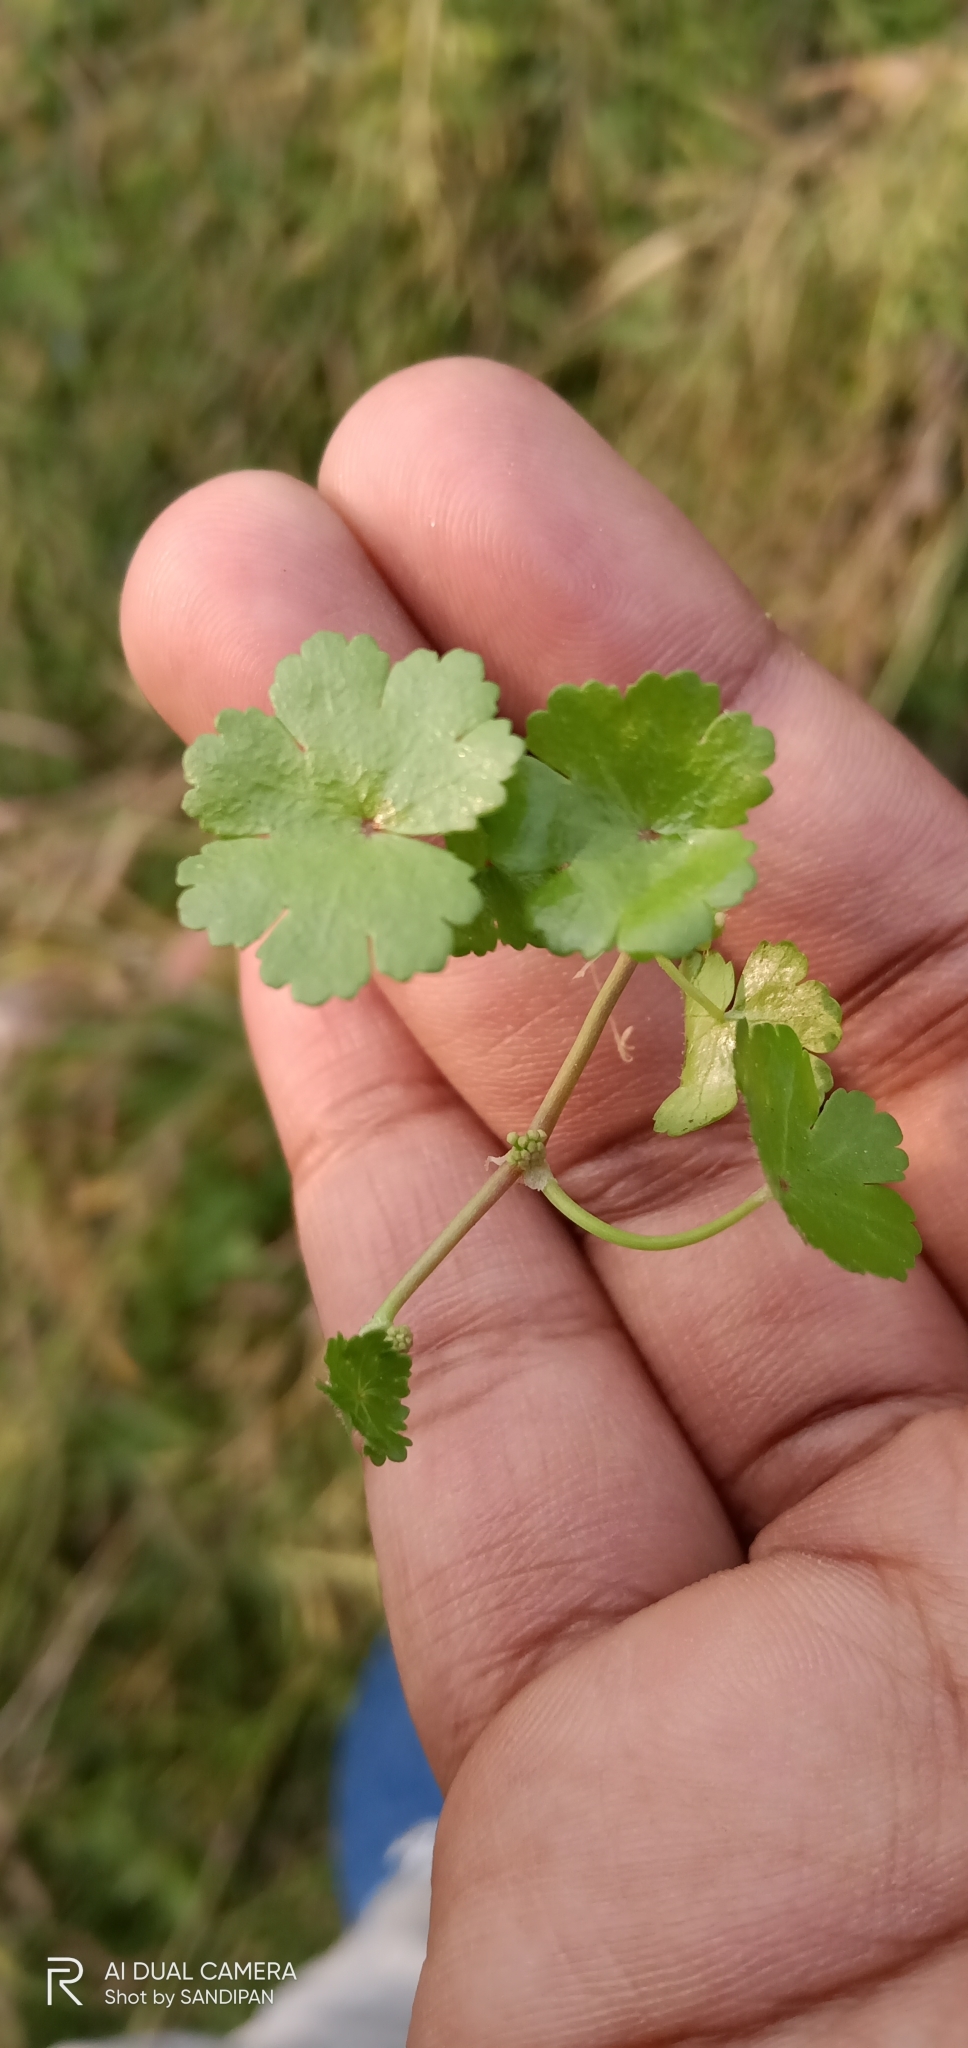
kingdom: Plantae
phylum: Tracheophyta
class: Magnoliopsida
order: Apiales
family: Araliaceae
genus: Hydrocotyle
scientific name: Hydrocotyle sibthorpioides
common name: Lawn marshpennywort
